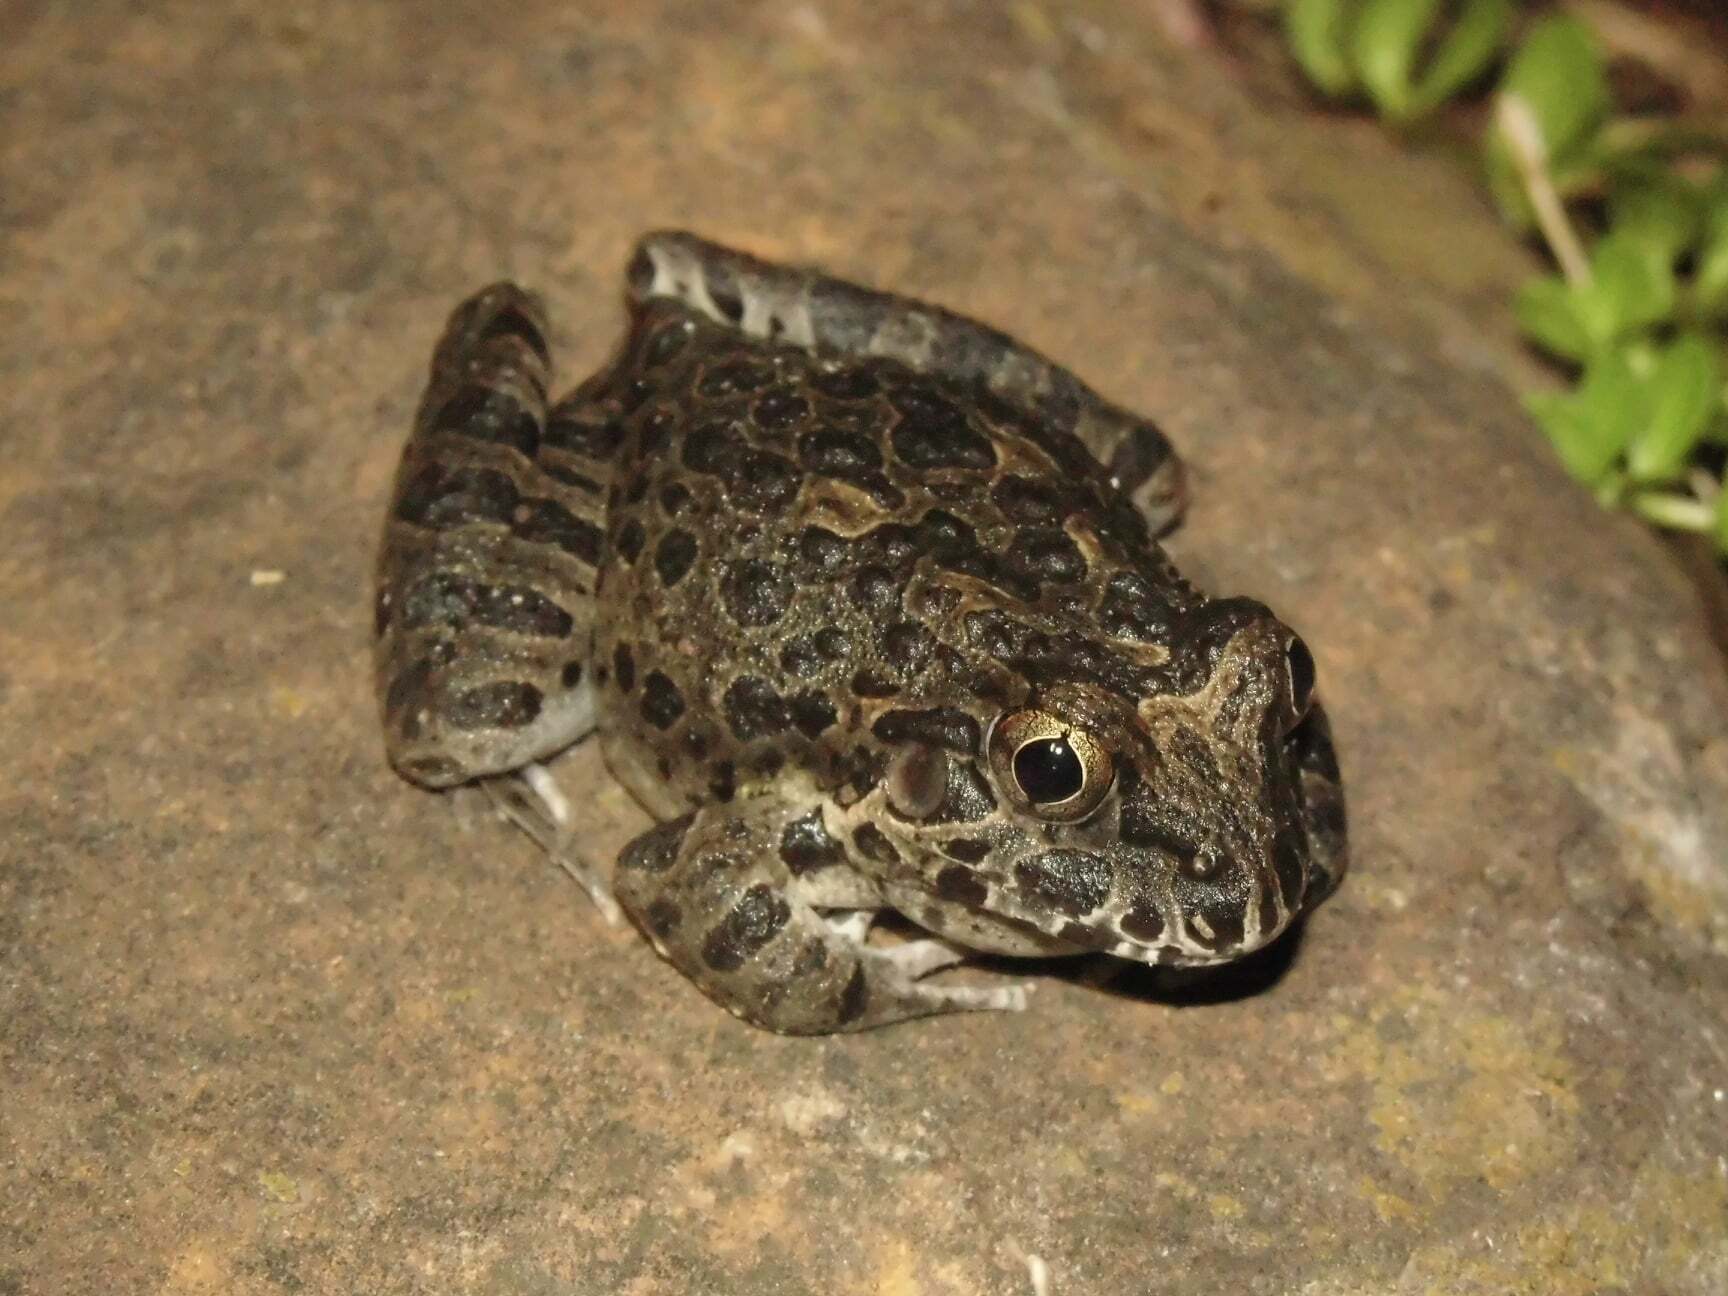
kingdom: Animalia
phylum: Chordata
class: Amphibia
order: Anura
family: Alsodidae
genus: Limnomedusa
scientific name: Limnomedusa macroglossa
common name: Rapids frog
